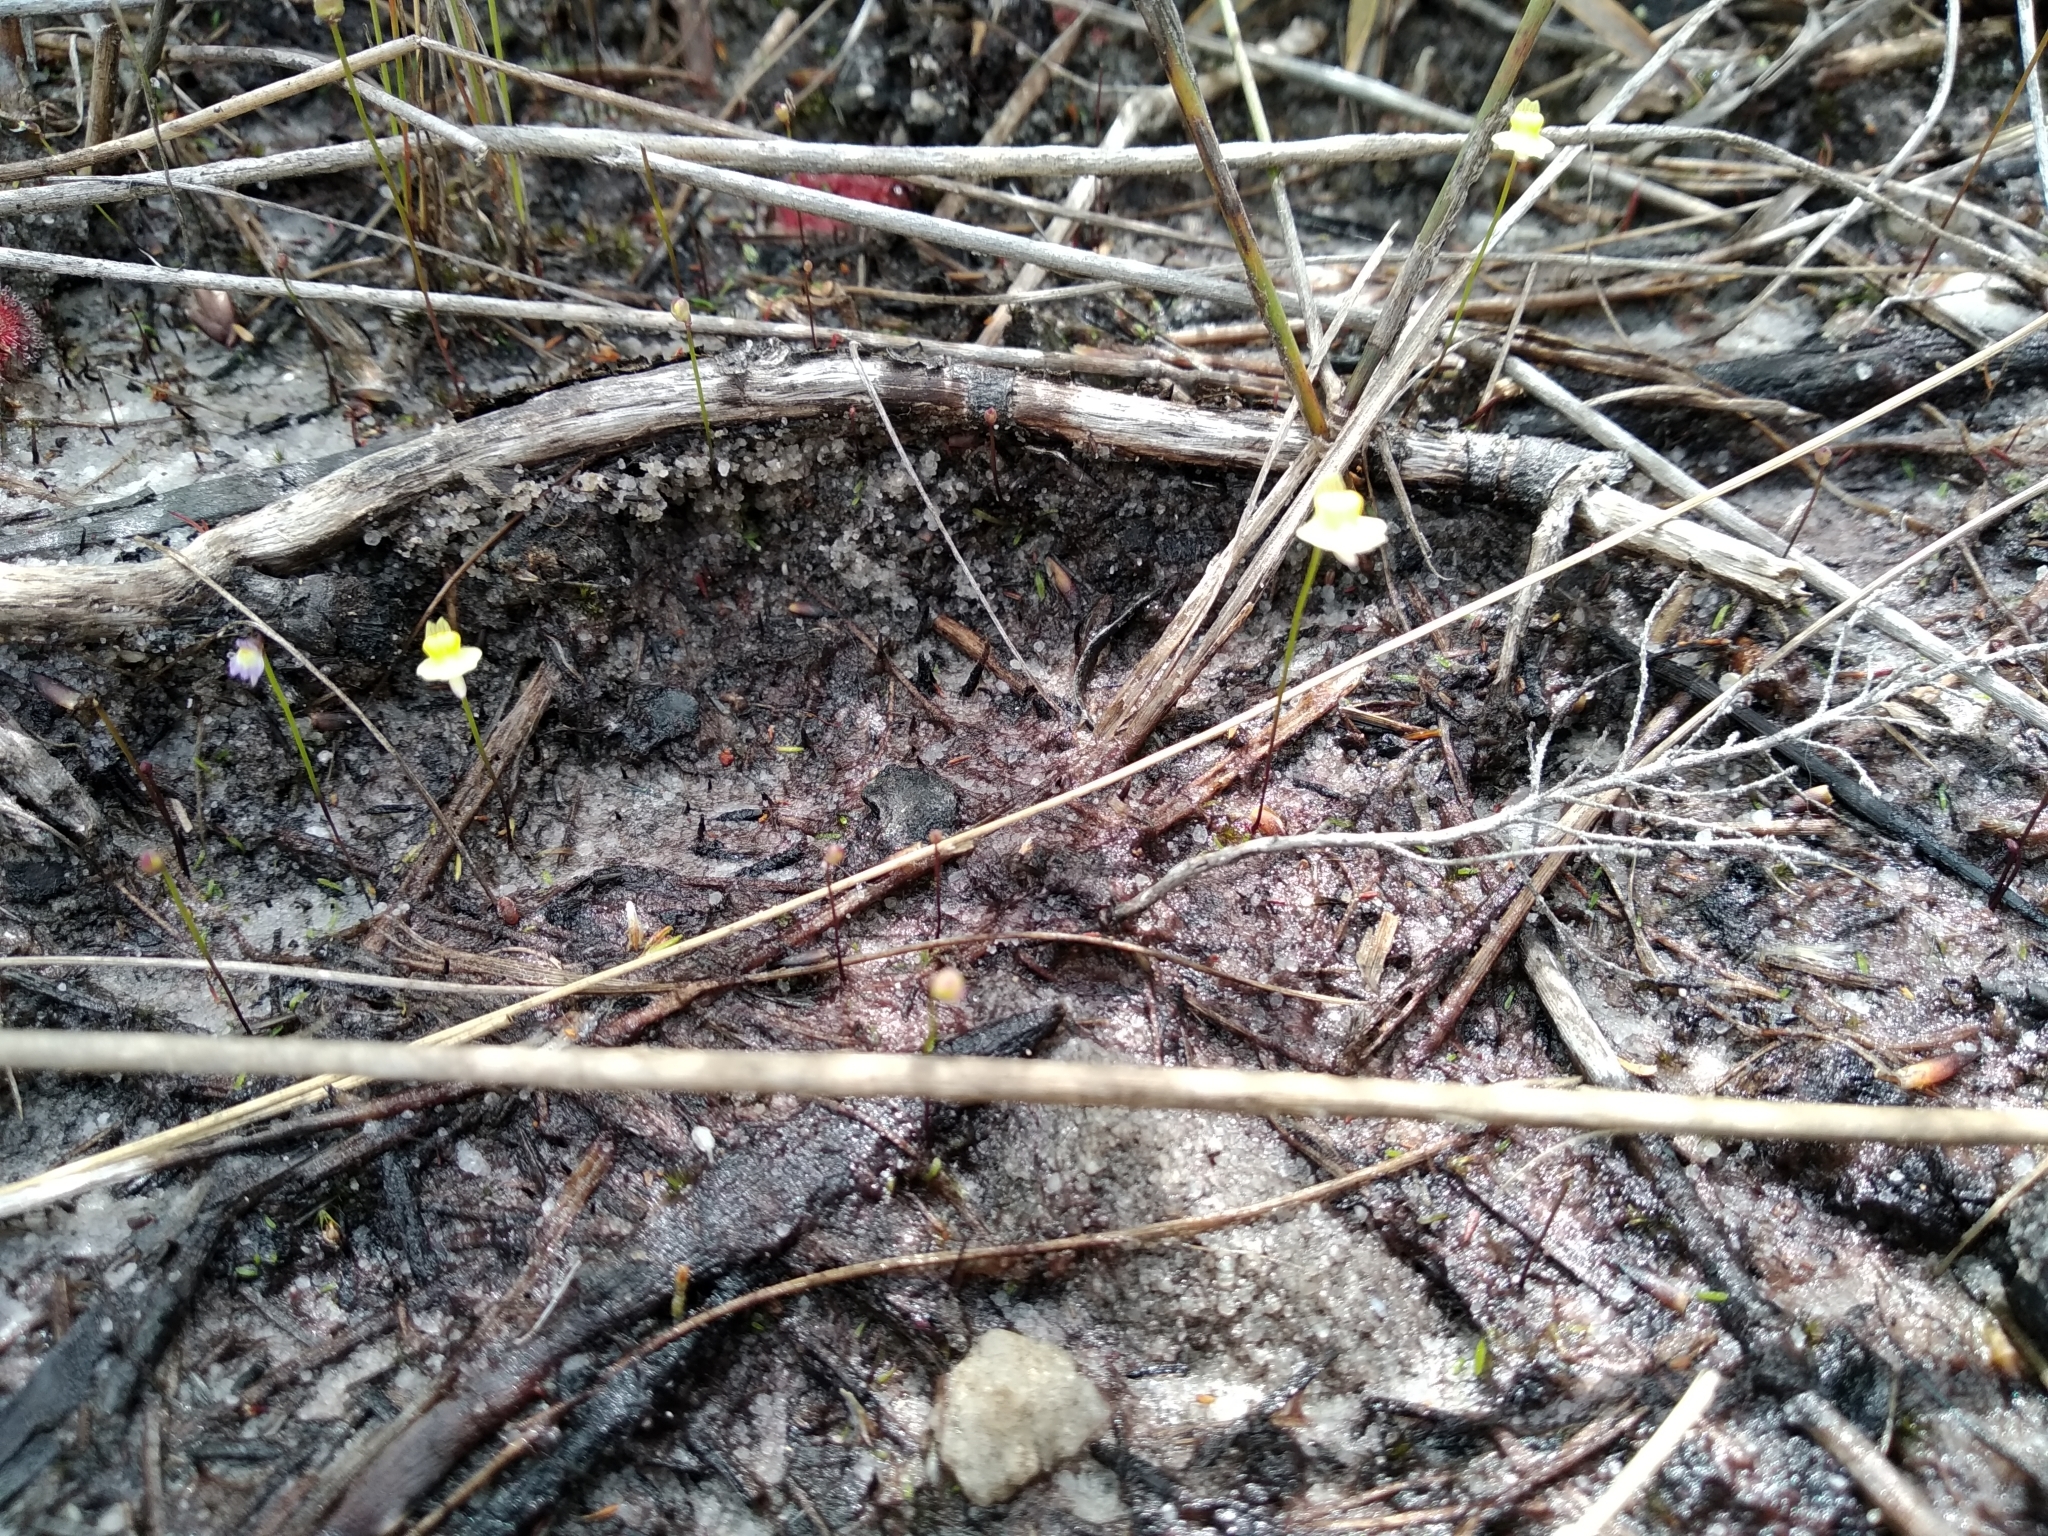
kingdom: Plantae
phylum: Tracheophyta
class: Magnoliopsida
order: Lamiales
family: Lentibulariaceae
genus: Utricularia
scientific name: Utricularia bisquamata
